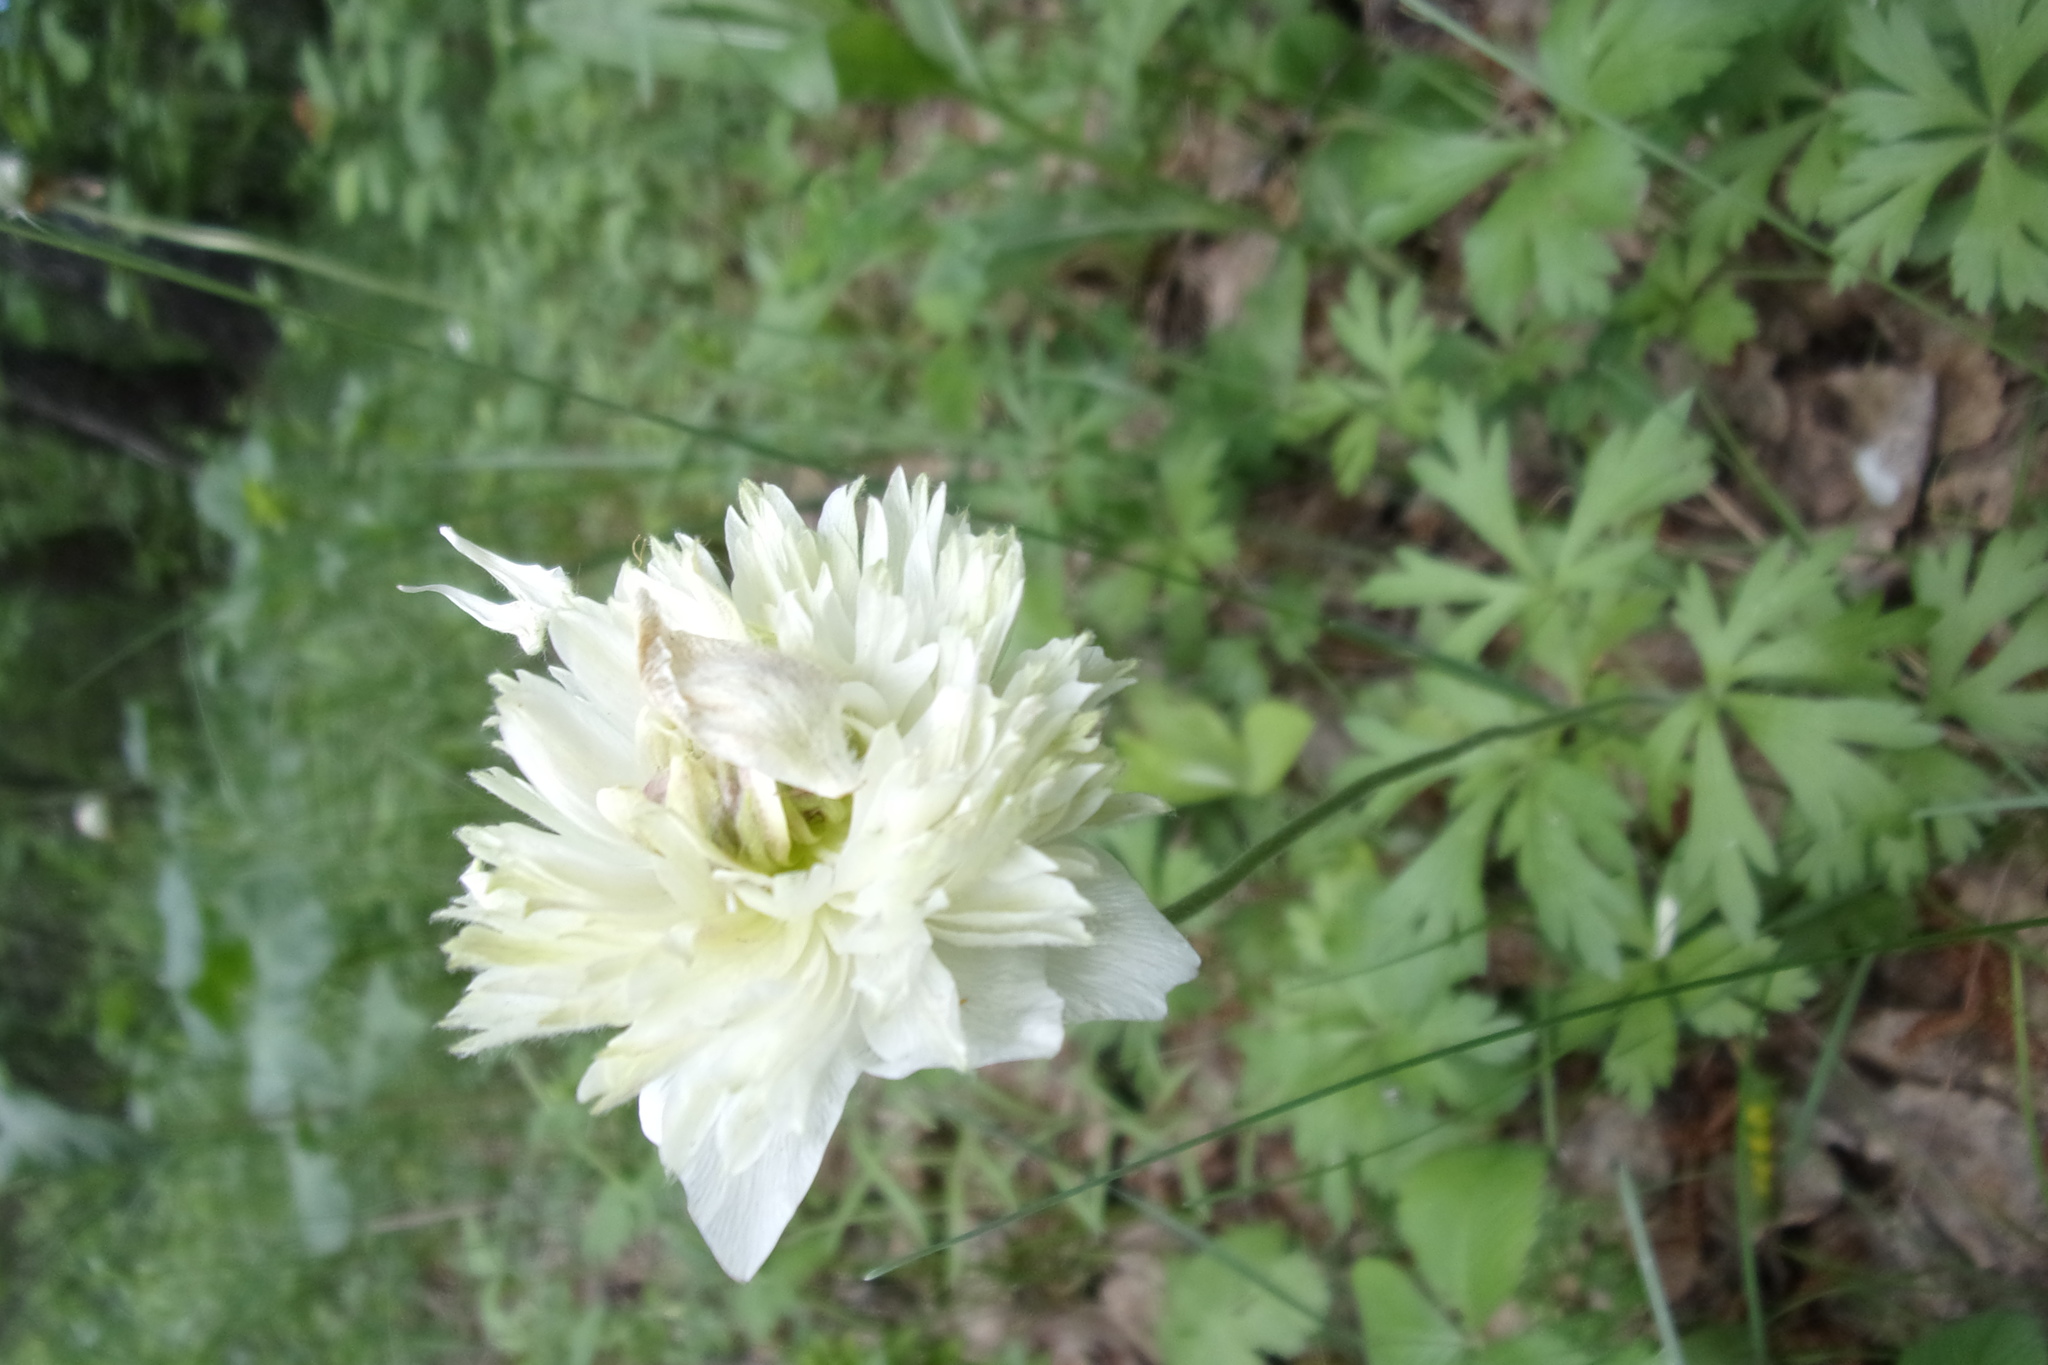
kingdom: Plantae
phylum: Tracheophyta
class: Magnoliopsida
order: Ranunculales
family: Ranunculaceae
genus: Anemone
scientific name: Anemone sylvestris
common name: Snowdrop anemone
